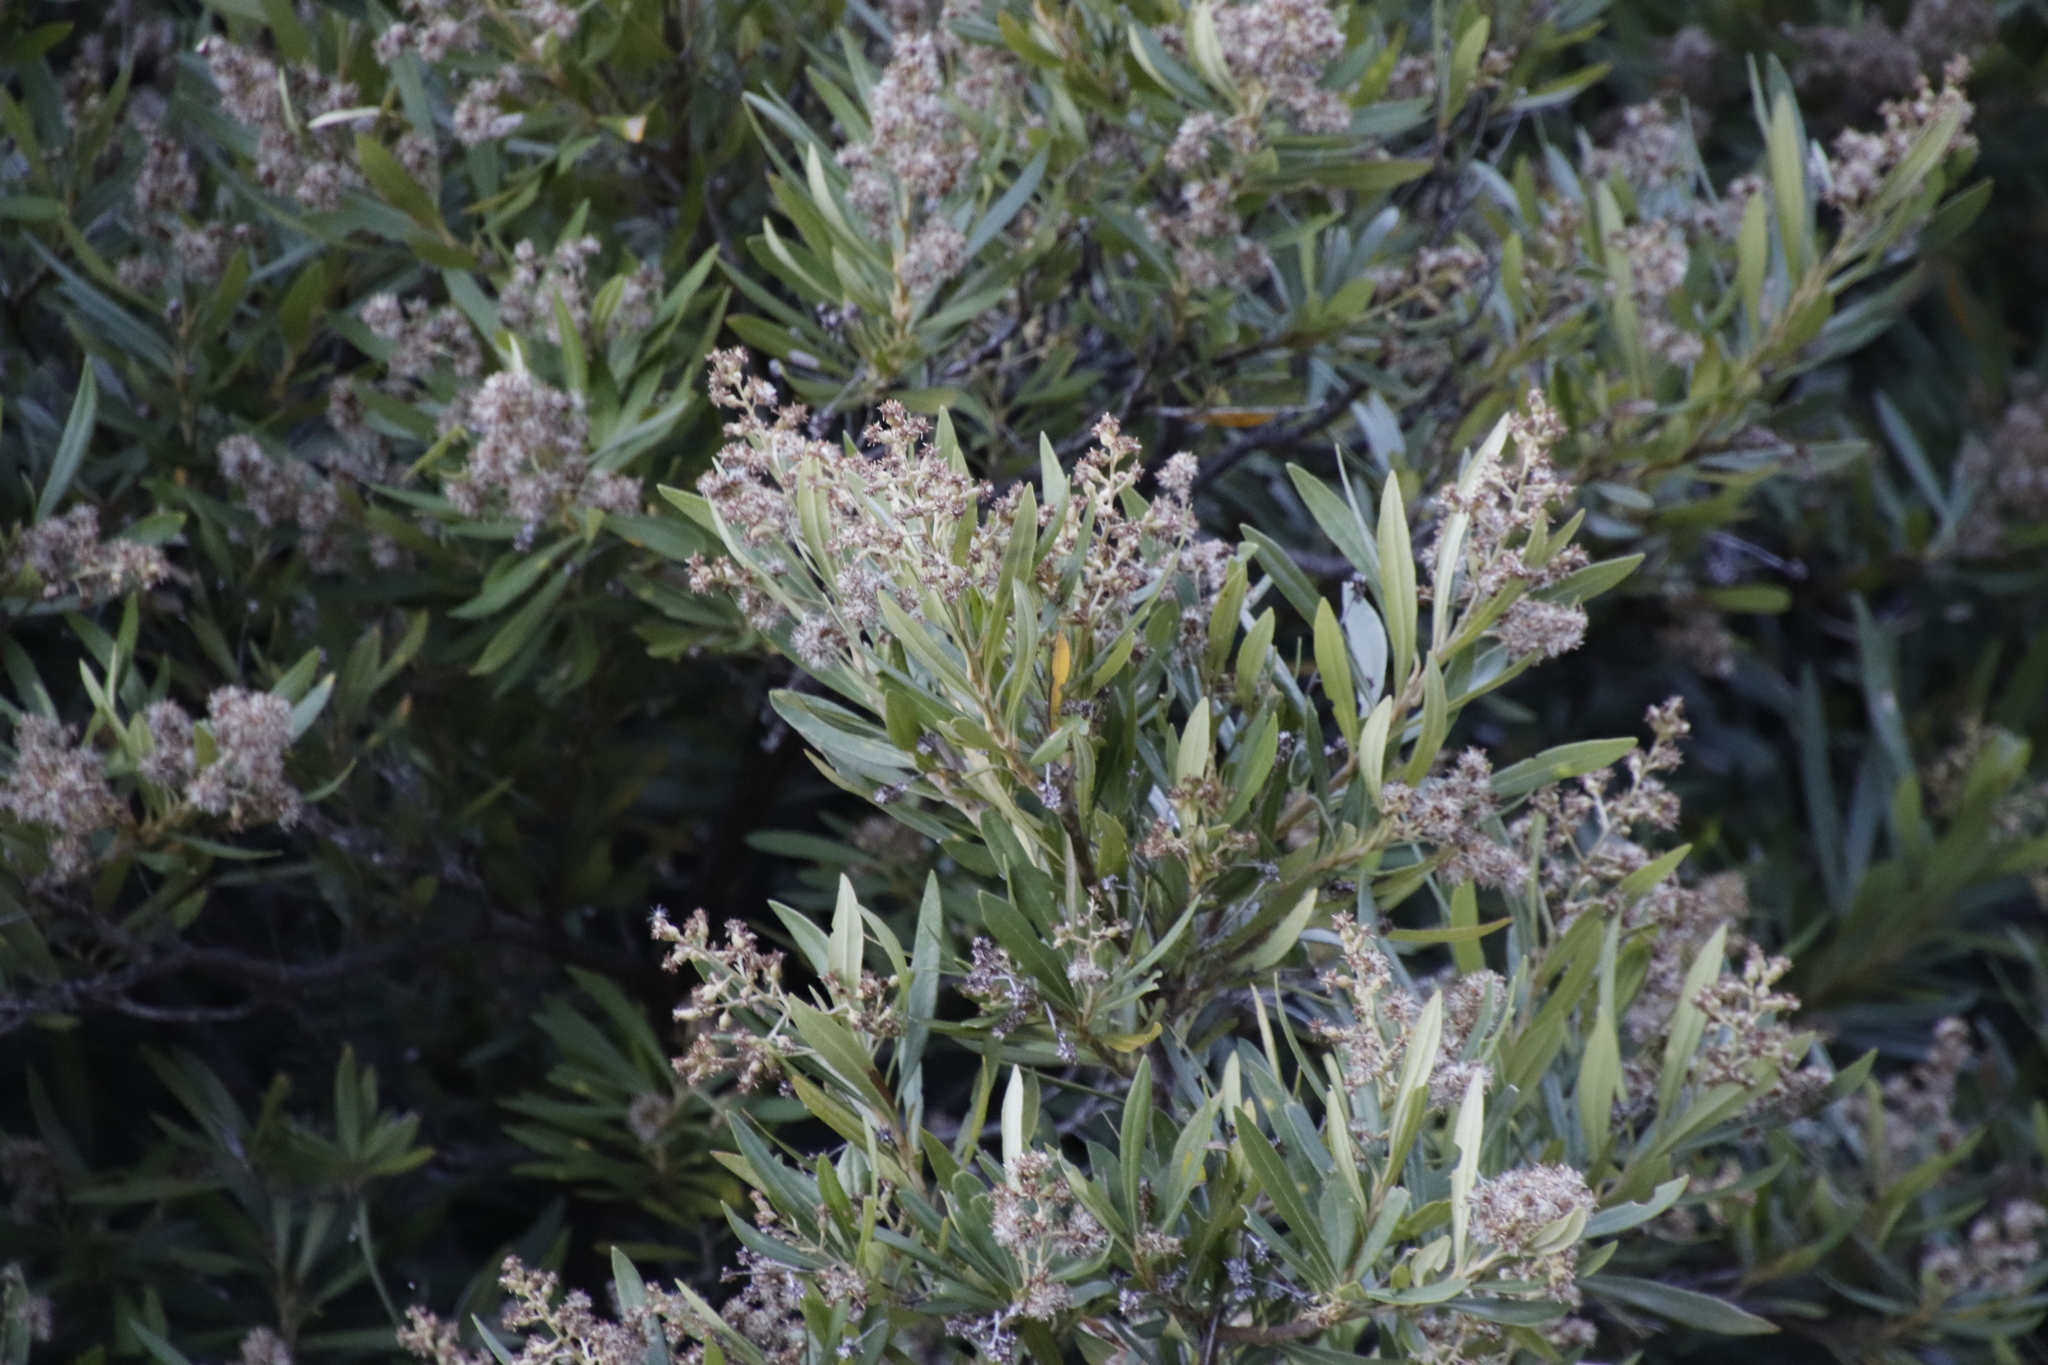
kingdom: Plantae
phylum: Tracheophyta
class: Magnoliopsida
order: Asterales
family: Asteraceae
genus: Brachylaena
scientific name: Brachylaena neriifolia
